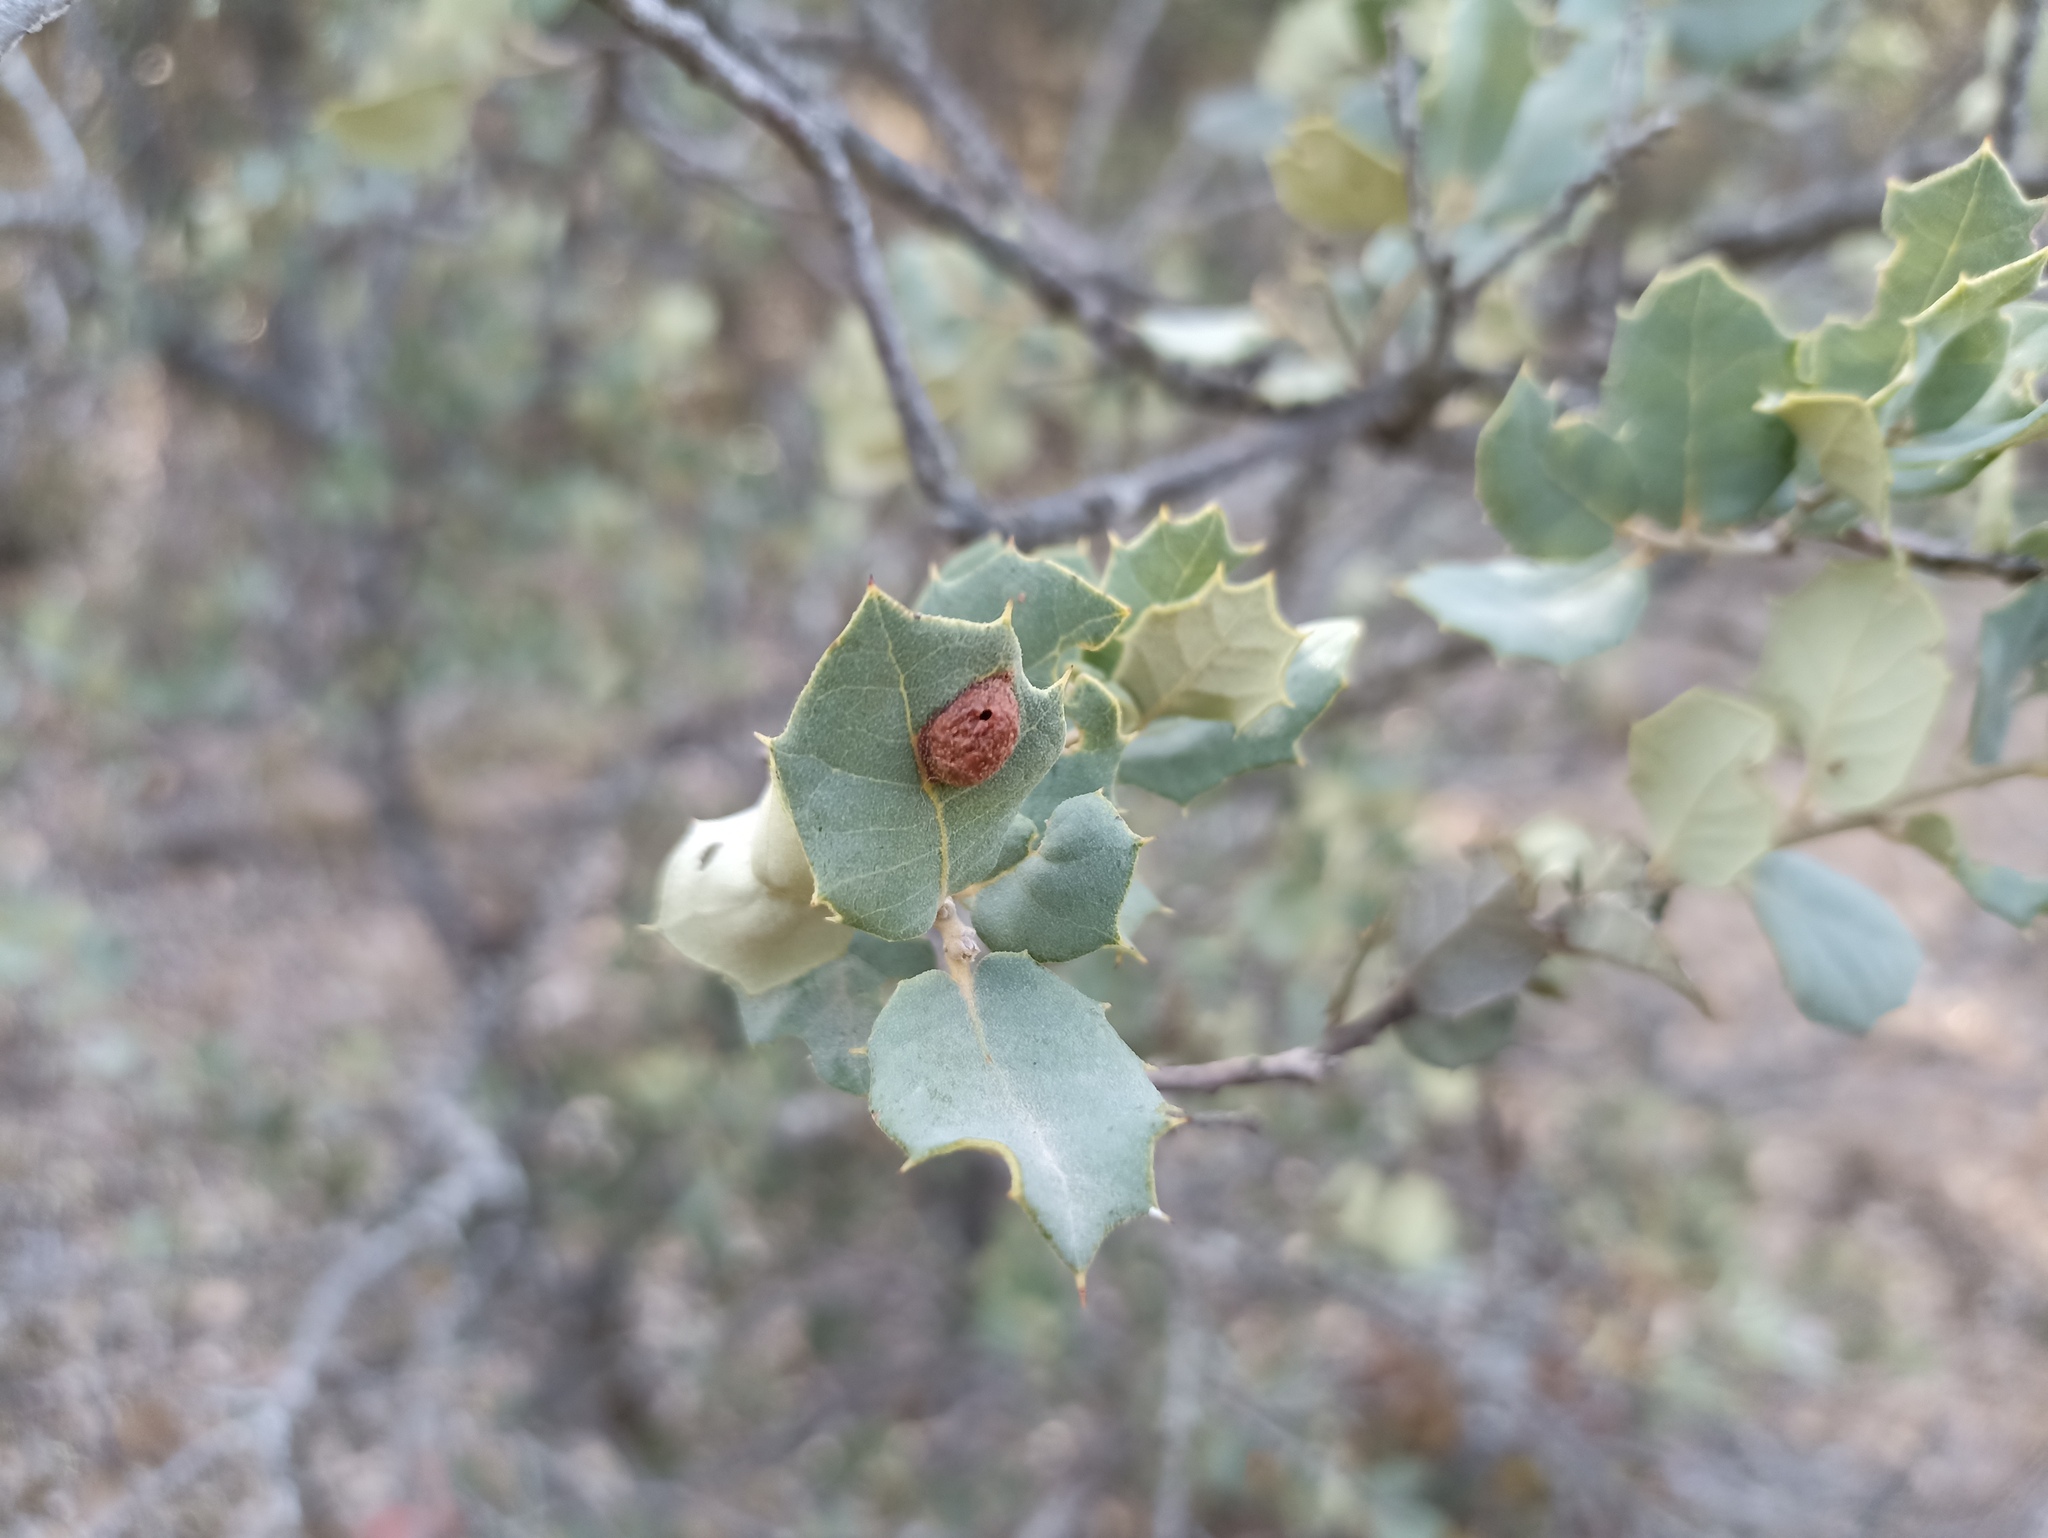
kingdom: Animalia
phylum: Arthropoda
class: Insecta
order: Hymenoptera
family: Cynipidae
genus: Plagiotrochus
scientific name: Plagiotrochus australis
